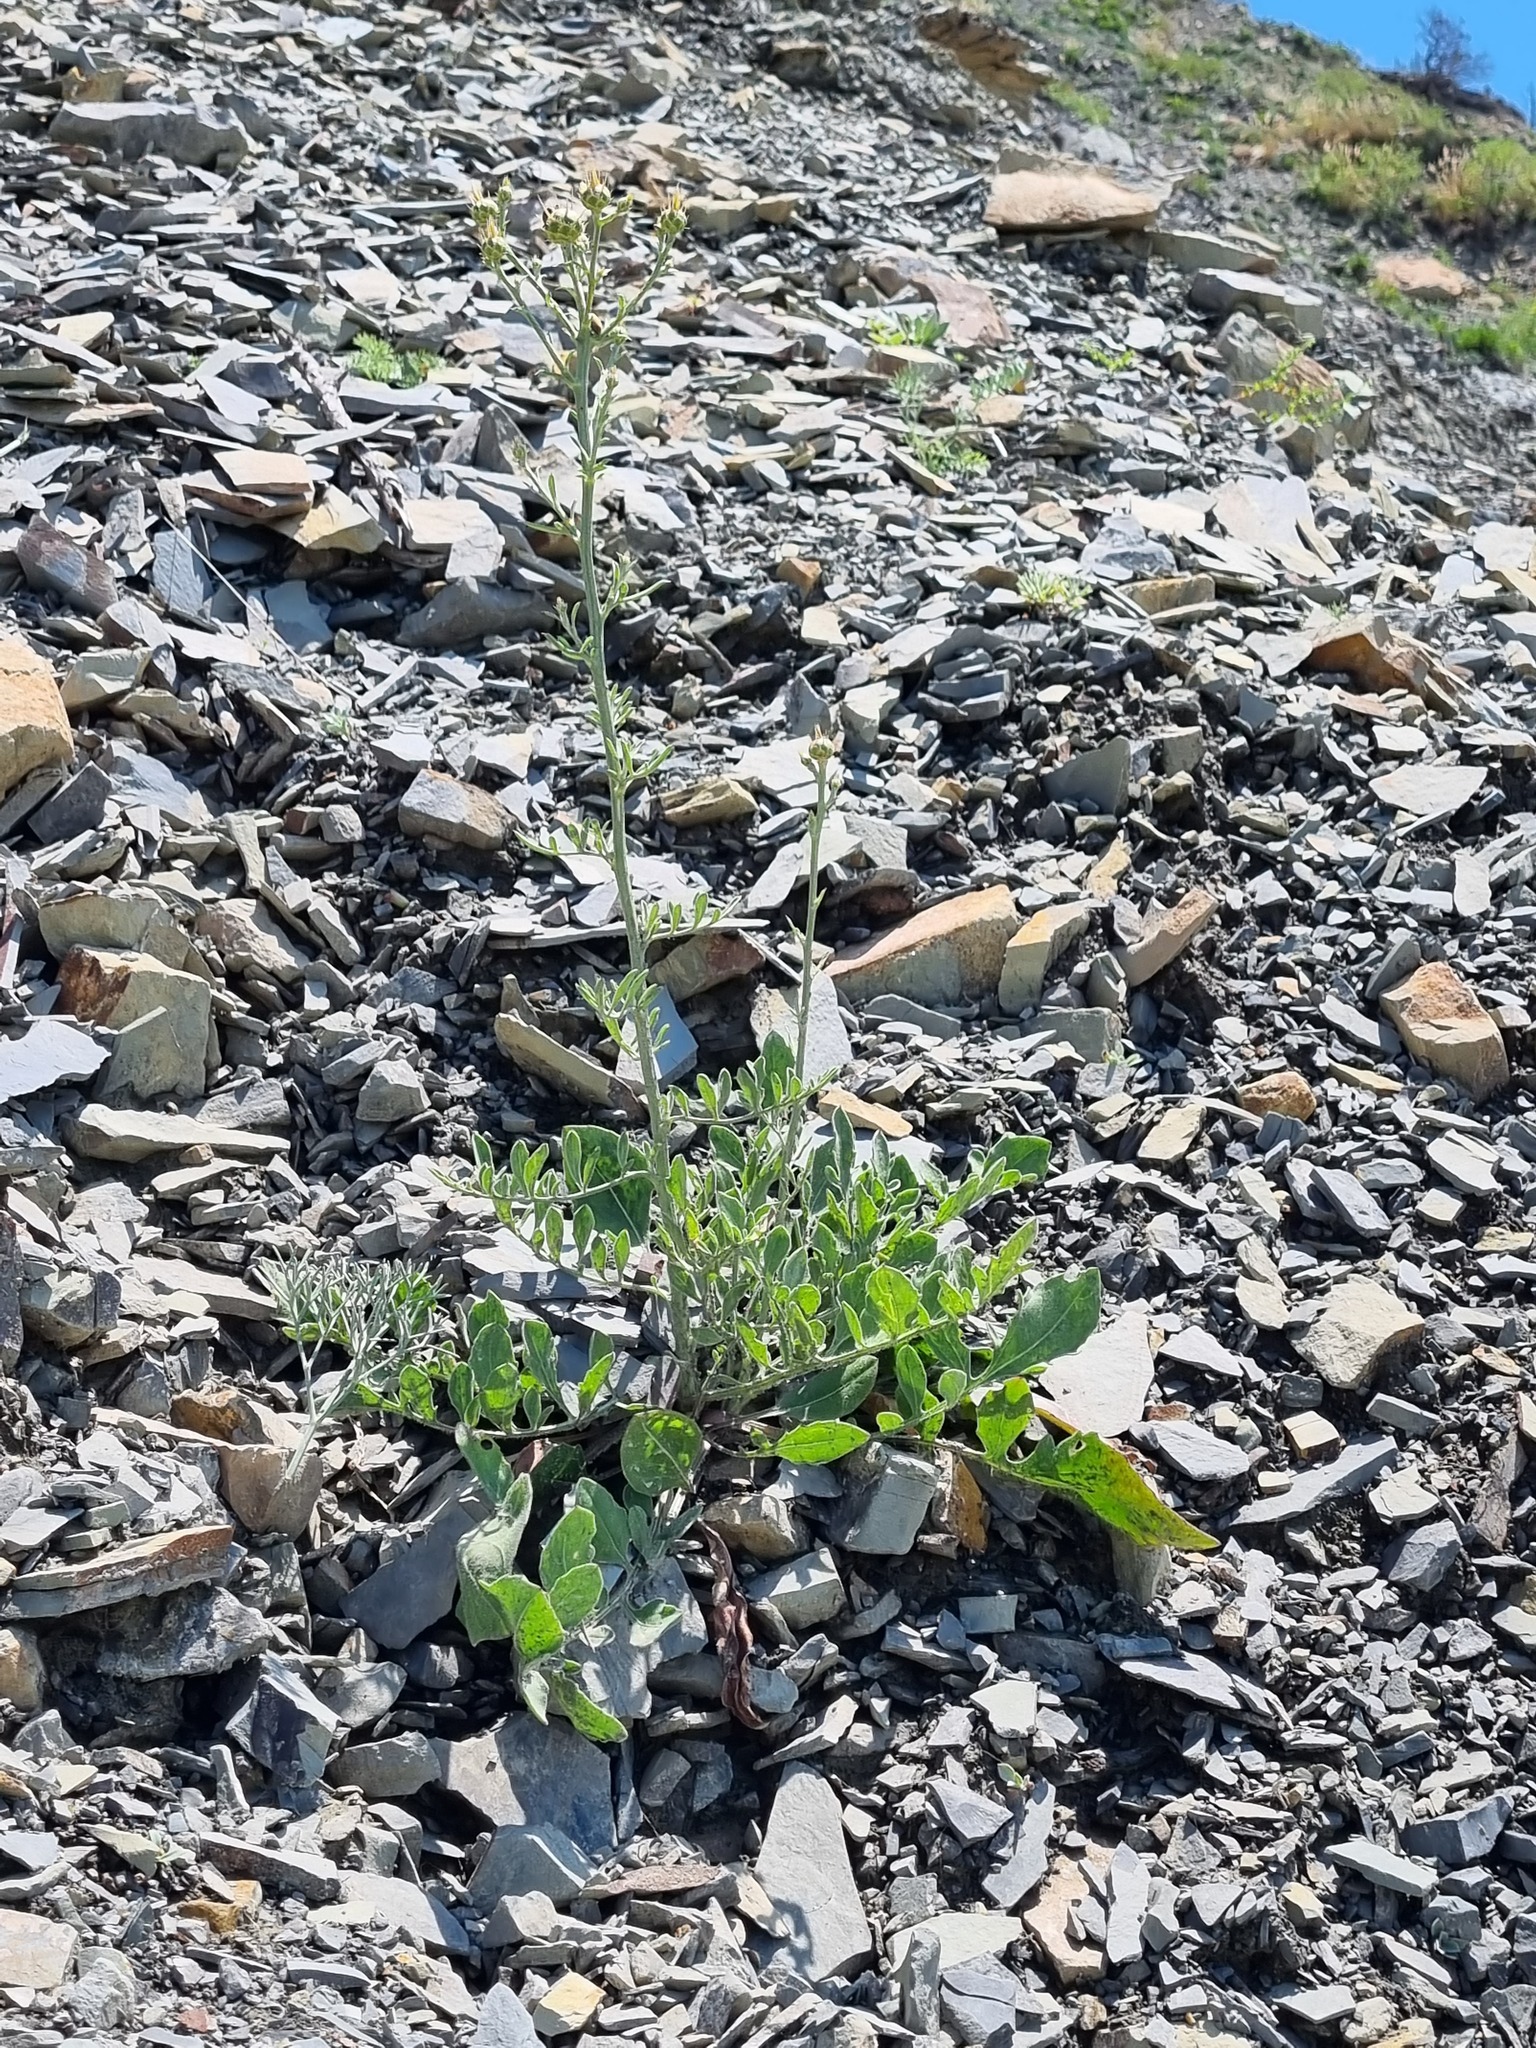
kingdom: Plantae
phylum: Tracheophyta
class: Magnoliopsida
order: Asterales
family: Asteraceae
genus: Centaurea
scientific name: Centaurea salonitana
